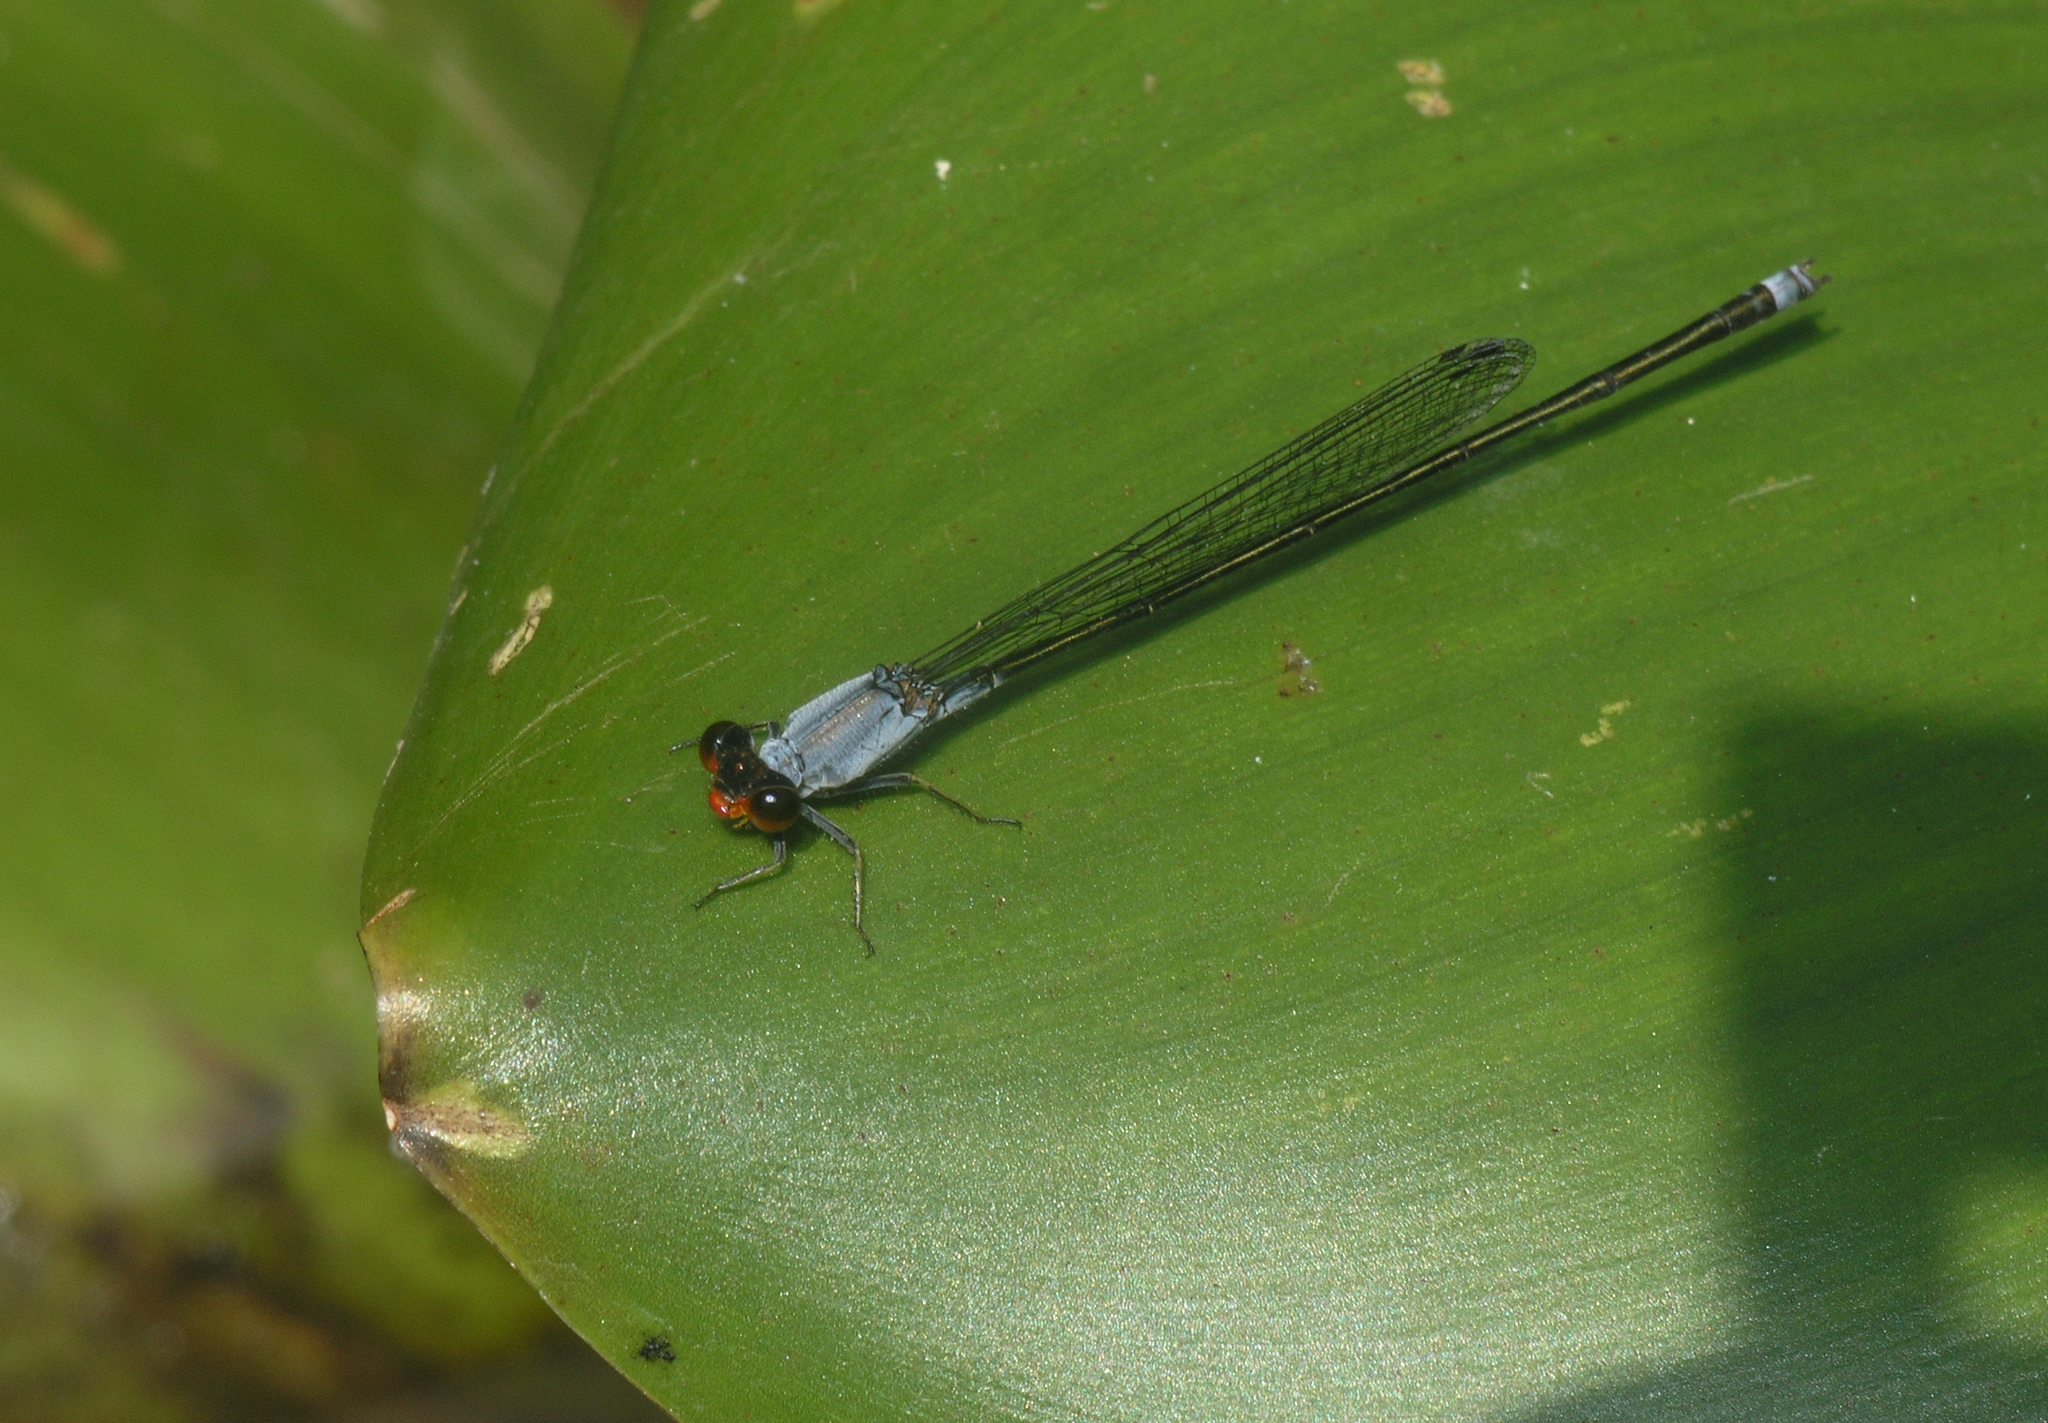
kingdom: Animalia
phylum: Arthropoda
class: Insecta
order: Odonata
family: Coenagrionidae
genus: Pseudagrion
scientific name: Pseudagrion pruinosum
